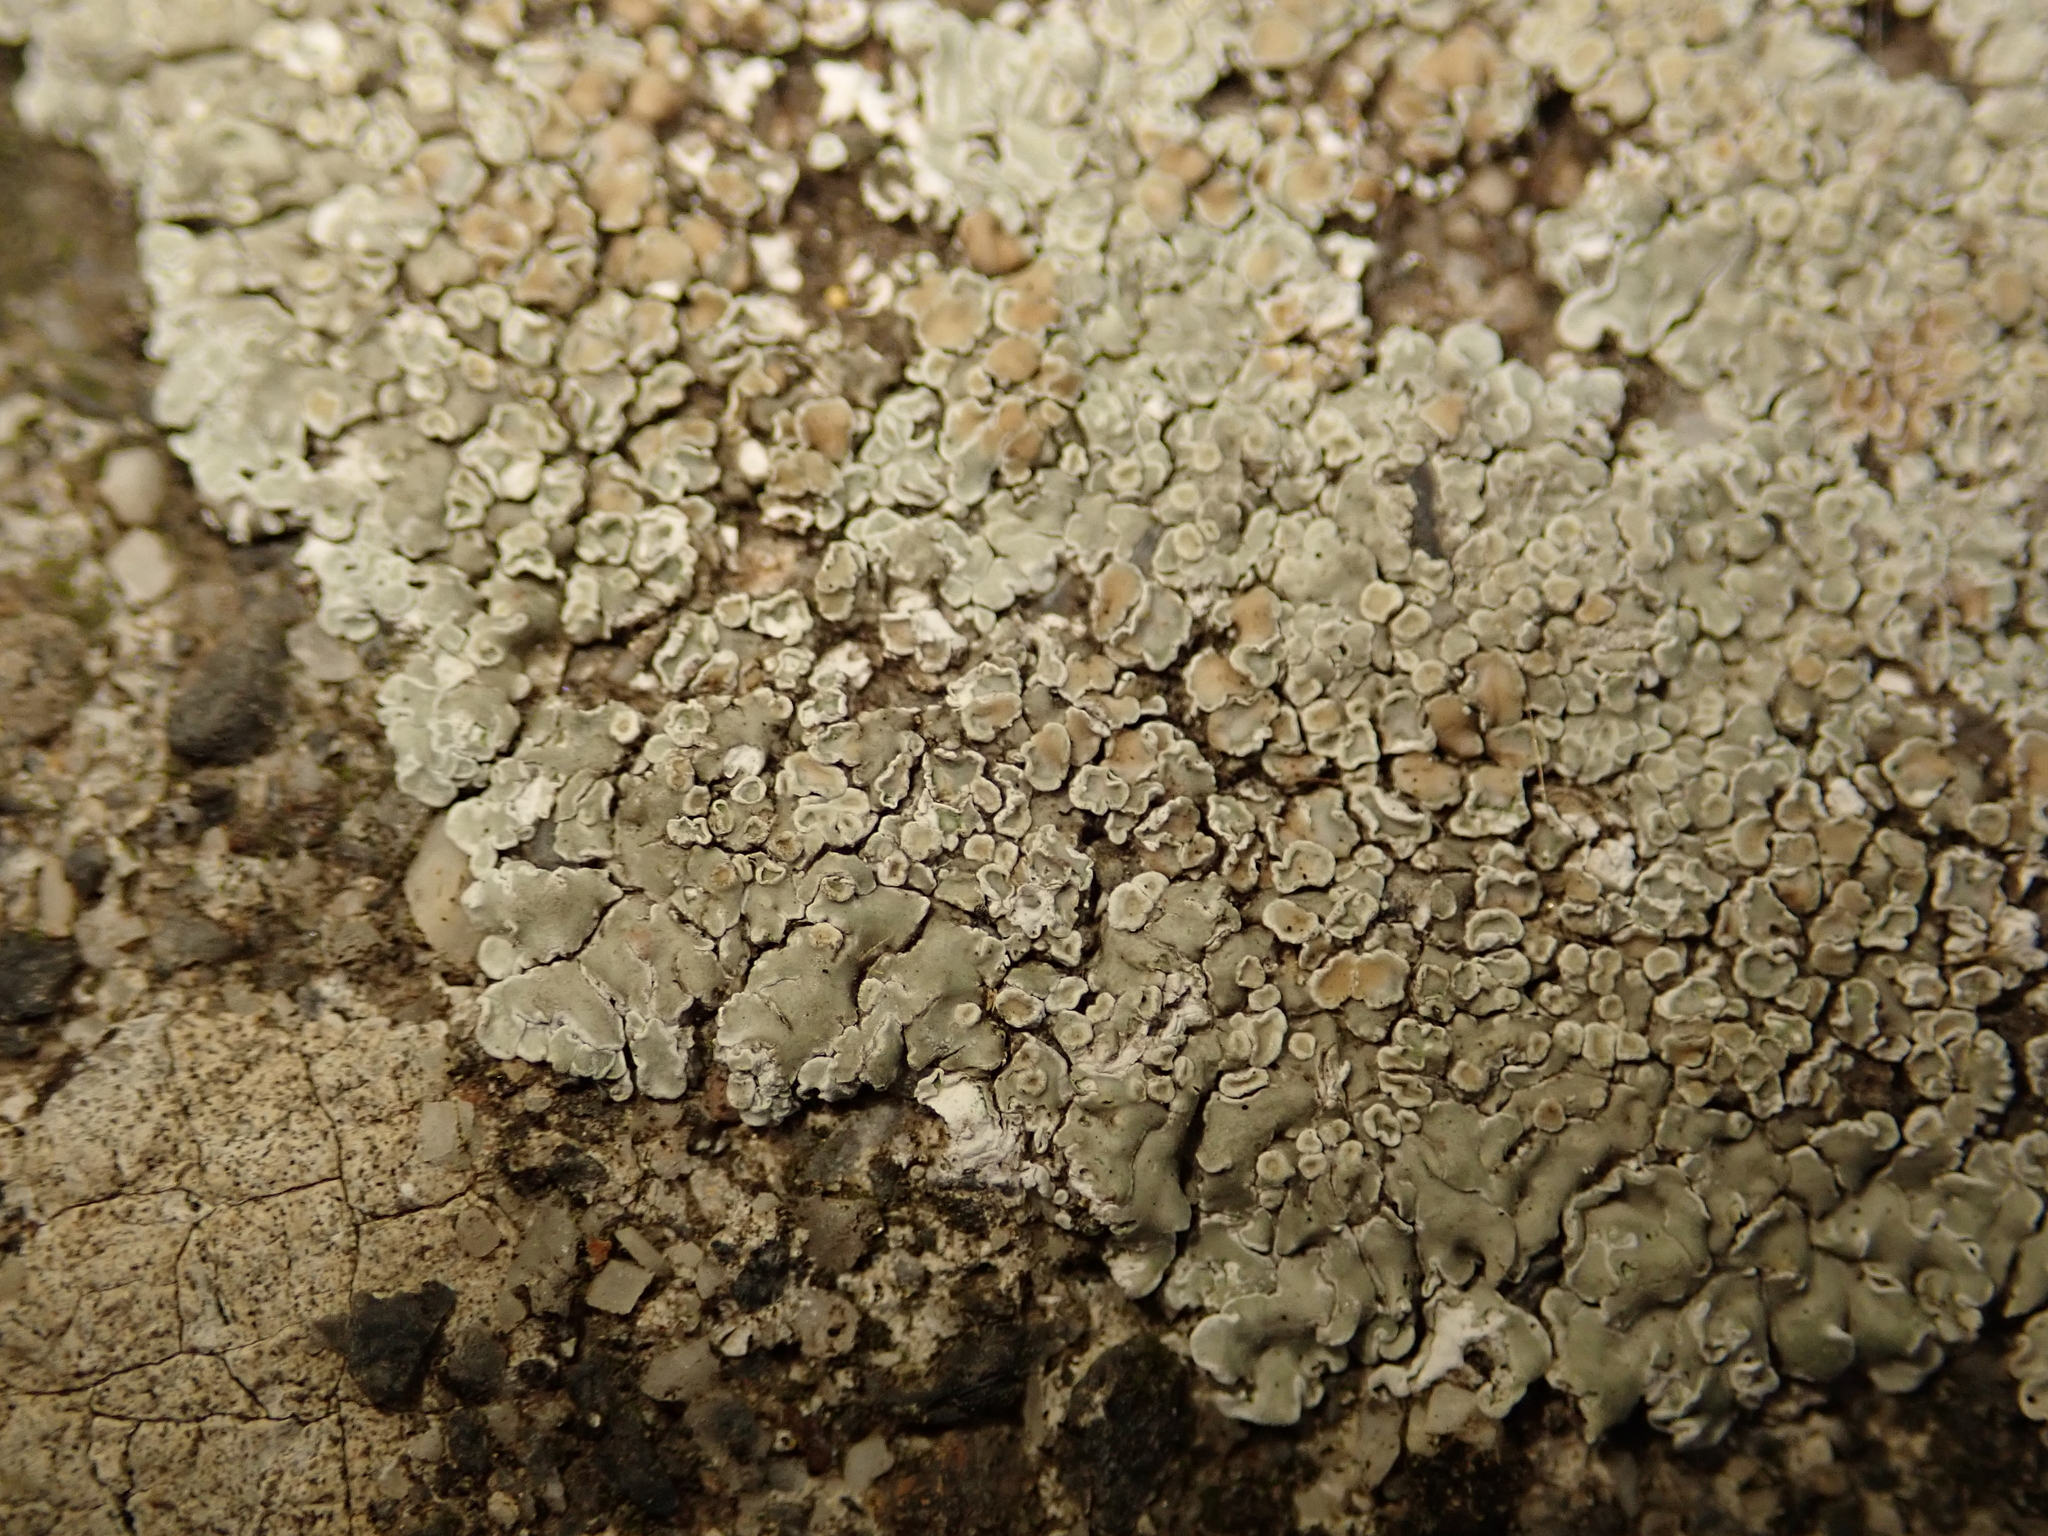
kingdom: Fungi
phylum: Ascomycota
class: Lecanoromycetes
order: Lecanorales
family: Lecanoraceae
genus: Protoparmeliopsis
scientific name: Protoparmeliopsis muralis
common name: Stonewall rim lichen
